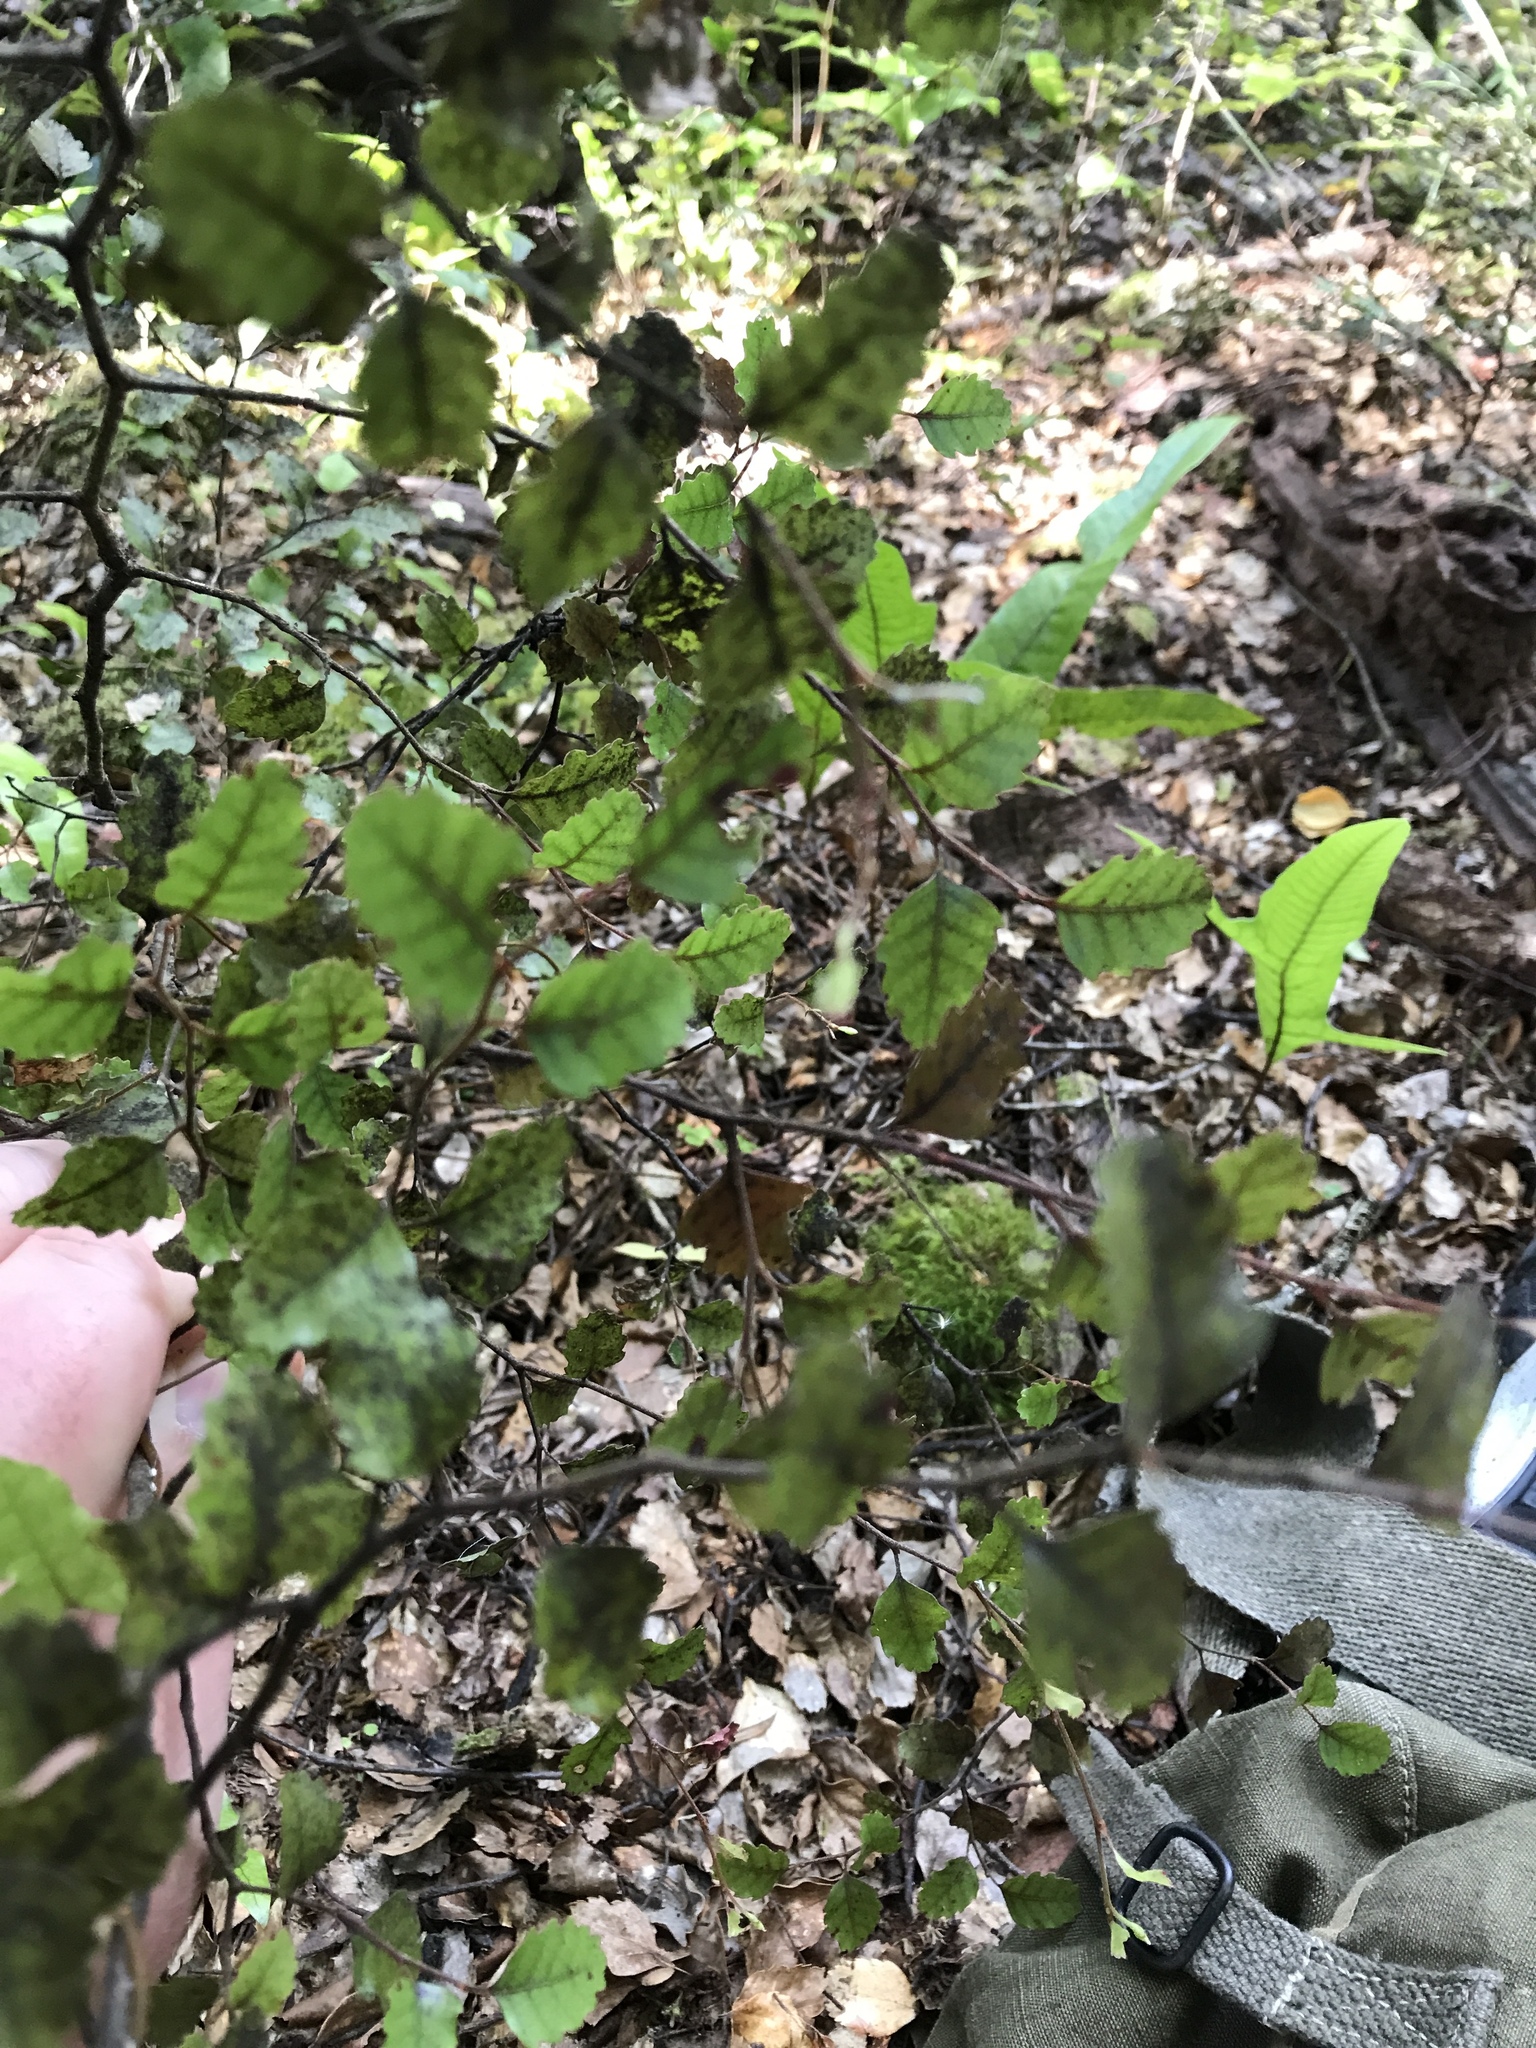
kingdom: Plantae
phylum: Tracheophyta
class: Magnoliopsida
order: Fagales
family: Nothofagaceae
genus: Nothofagus
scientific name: Nothofagus truncata
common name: Hard beech
